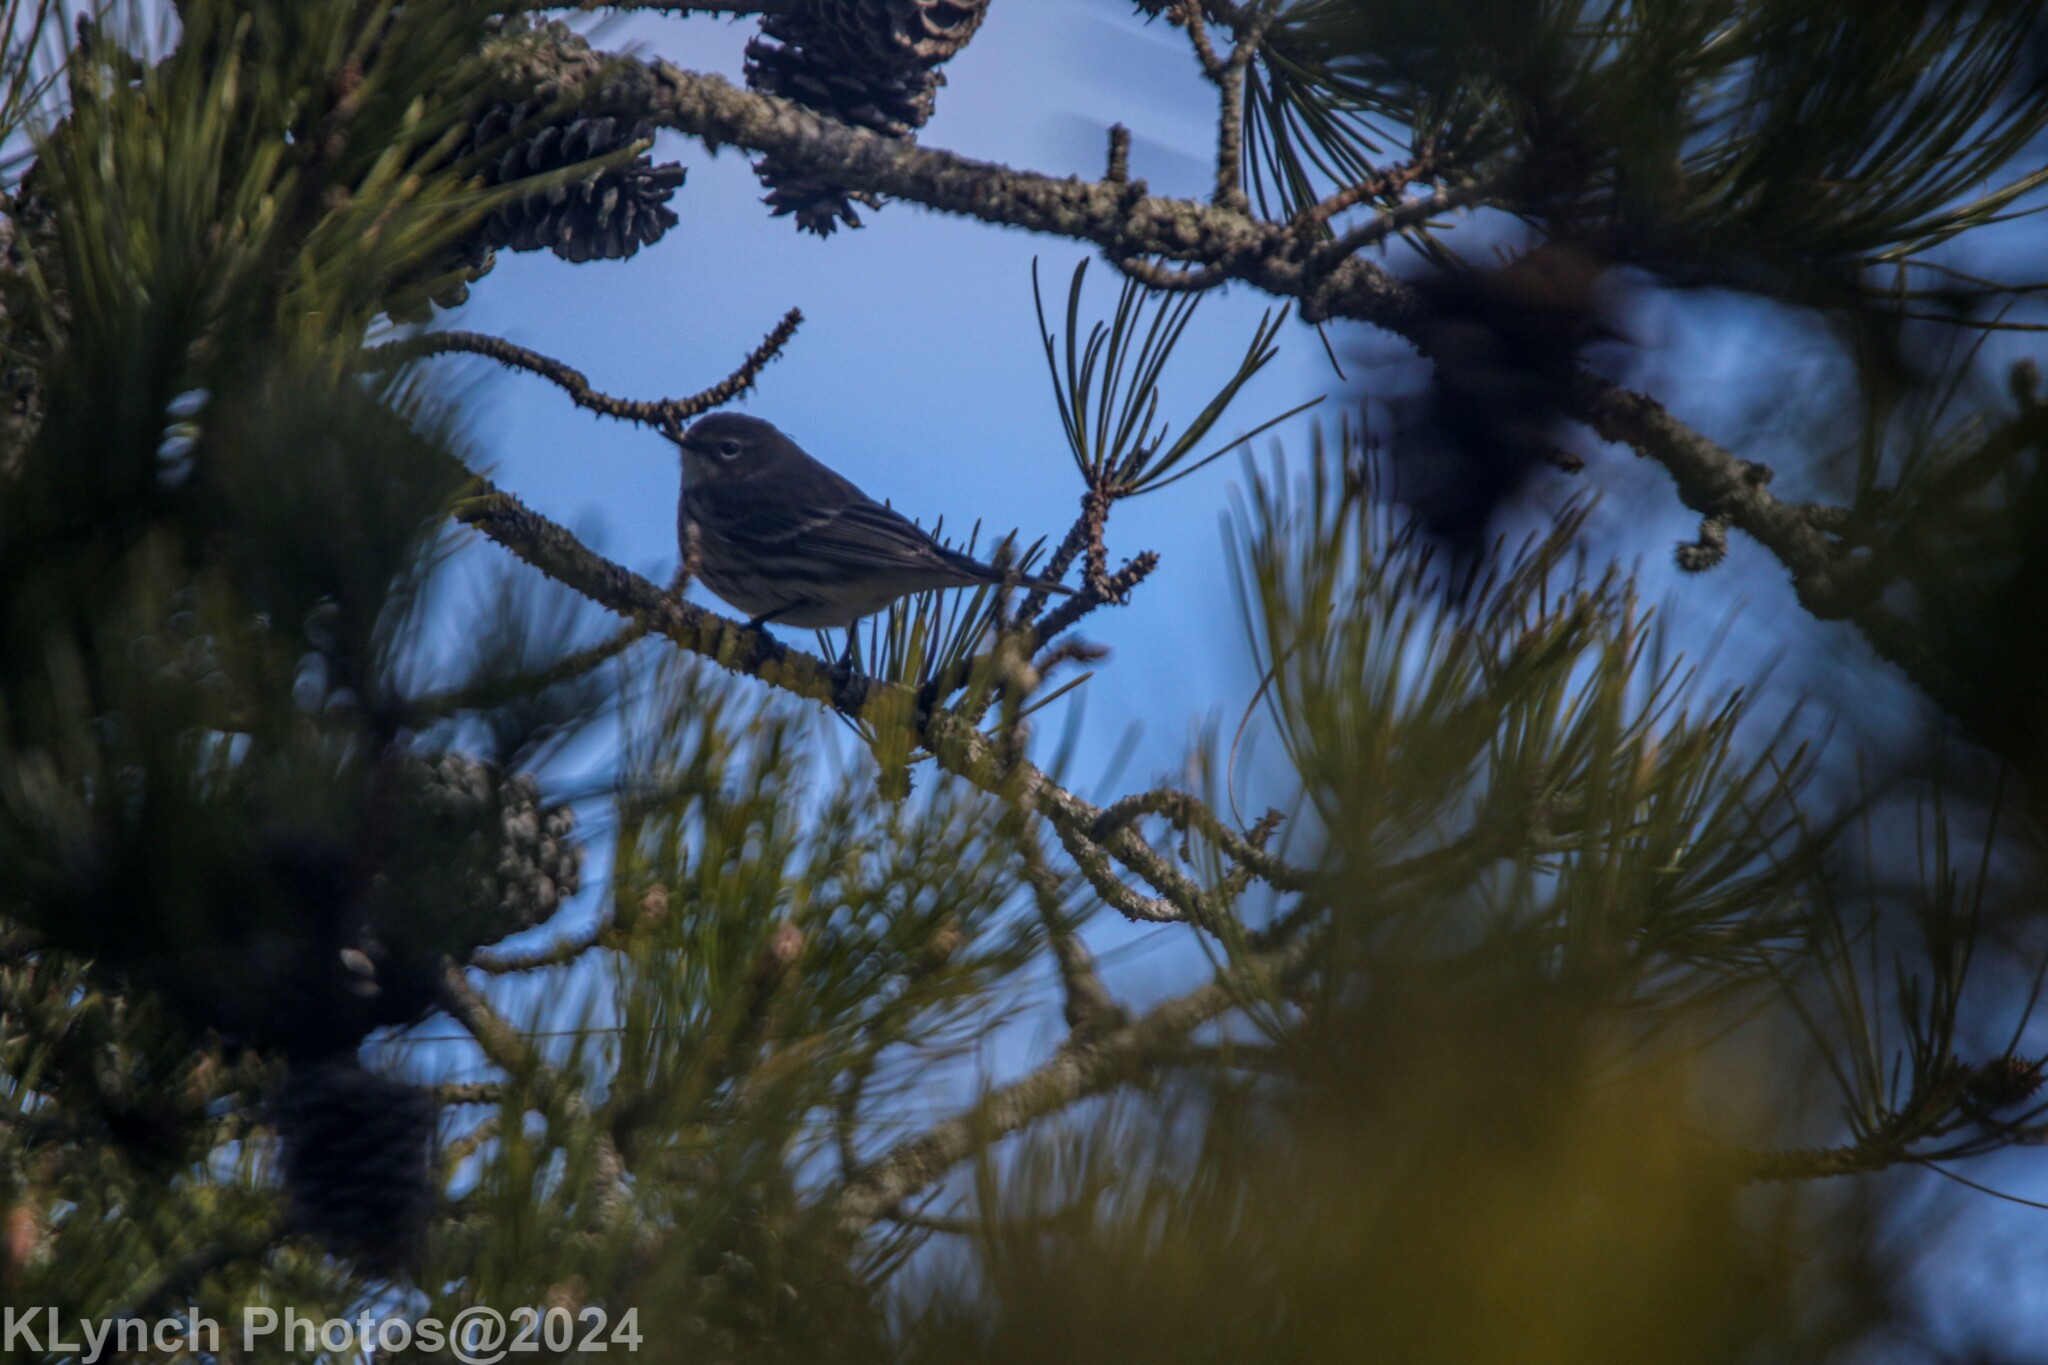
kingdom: Animalia
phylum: Chordata
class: Aves
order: Passeriformes
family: Parulidae
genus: Setophaga
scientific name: Setophaga coronata
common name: Myrtle warbler
